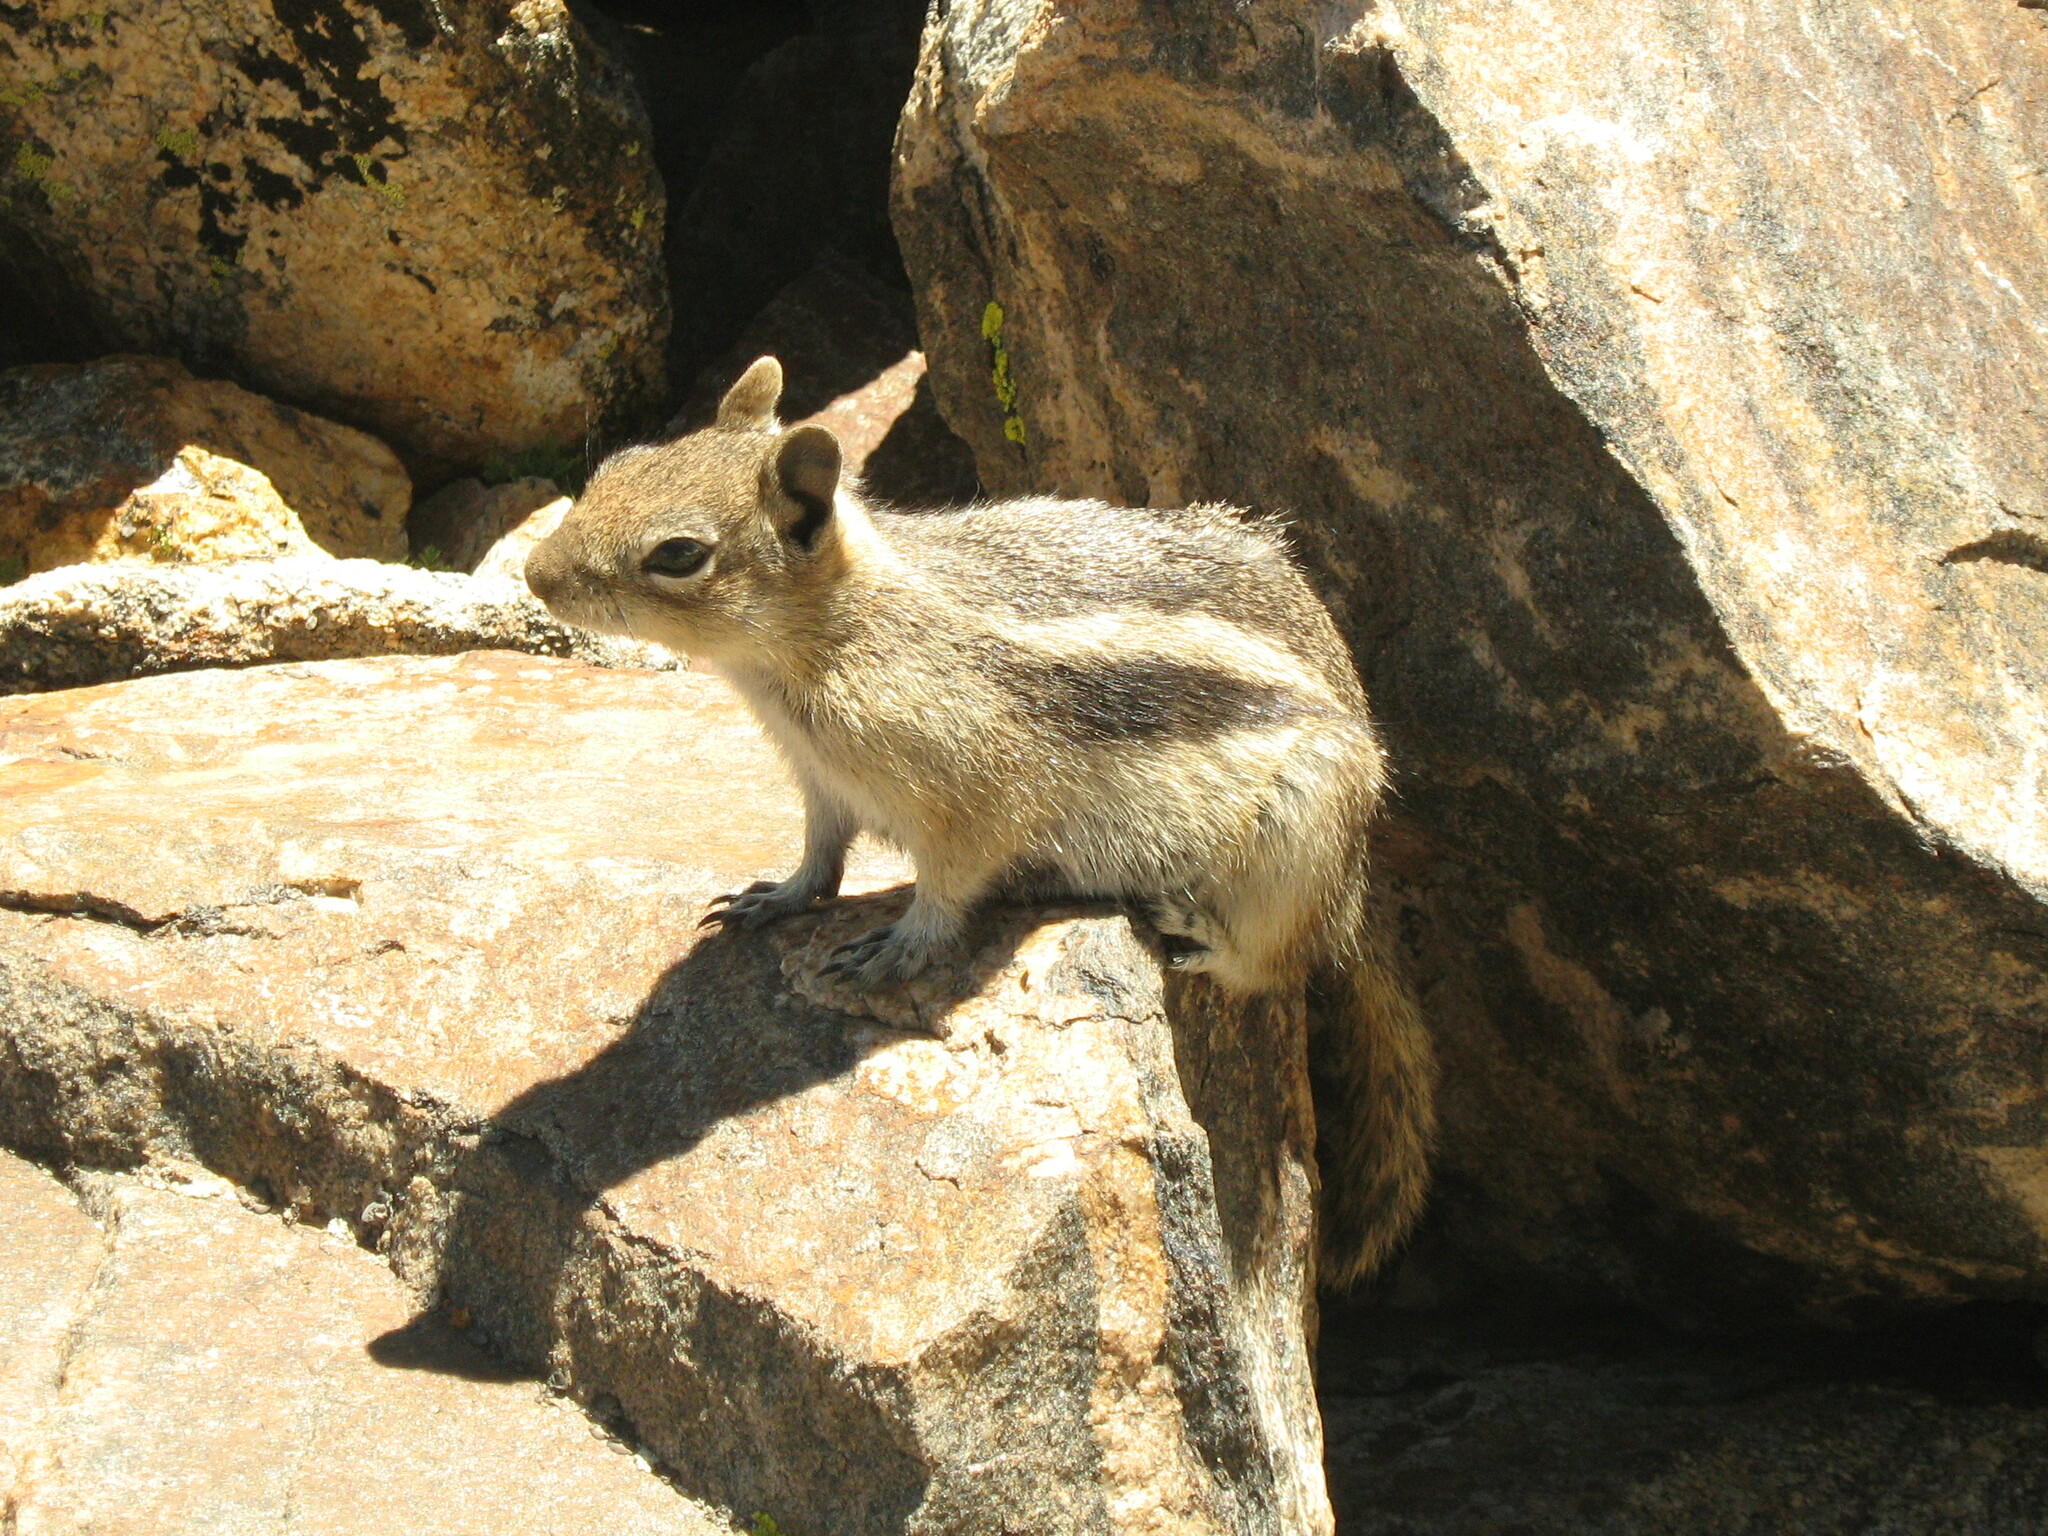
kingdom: Animalia
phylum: Chordata
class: Mammalia
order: Rodentia
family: Sciuridae
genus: Callospermophilus
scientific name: Callospermophilus lateralis
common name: Golden-mantled ground squirrel
